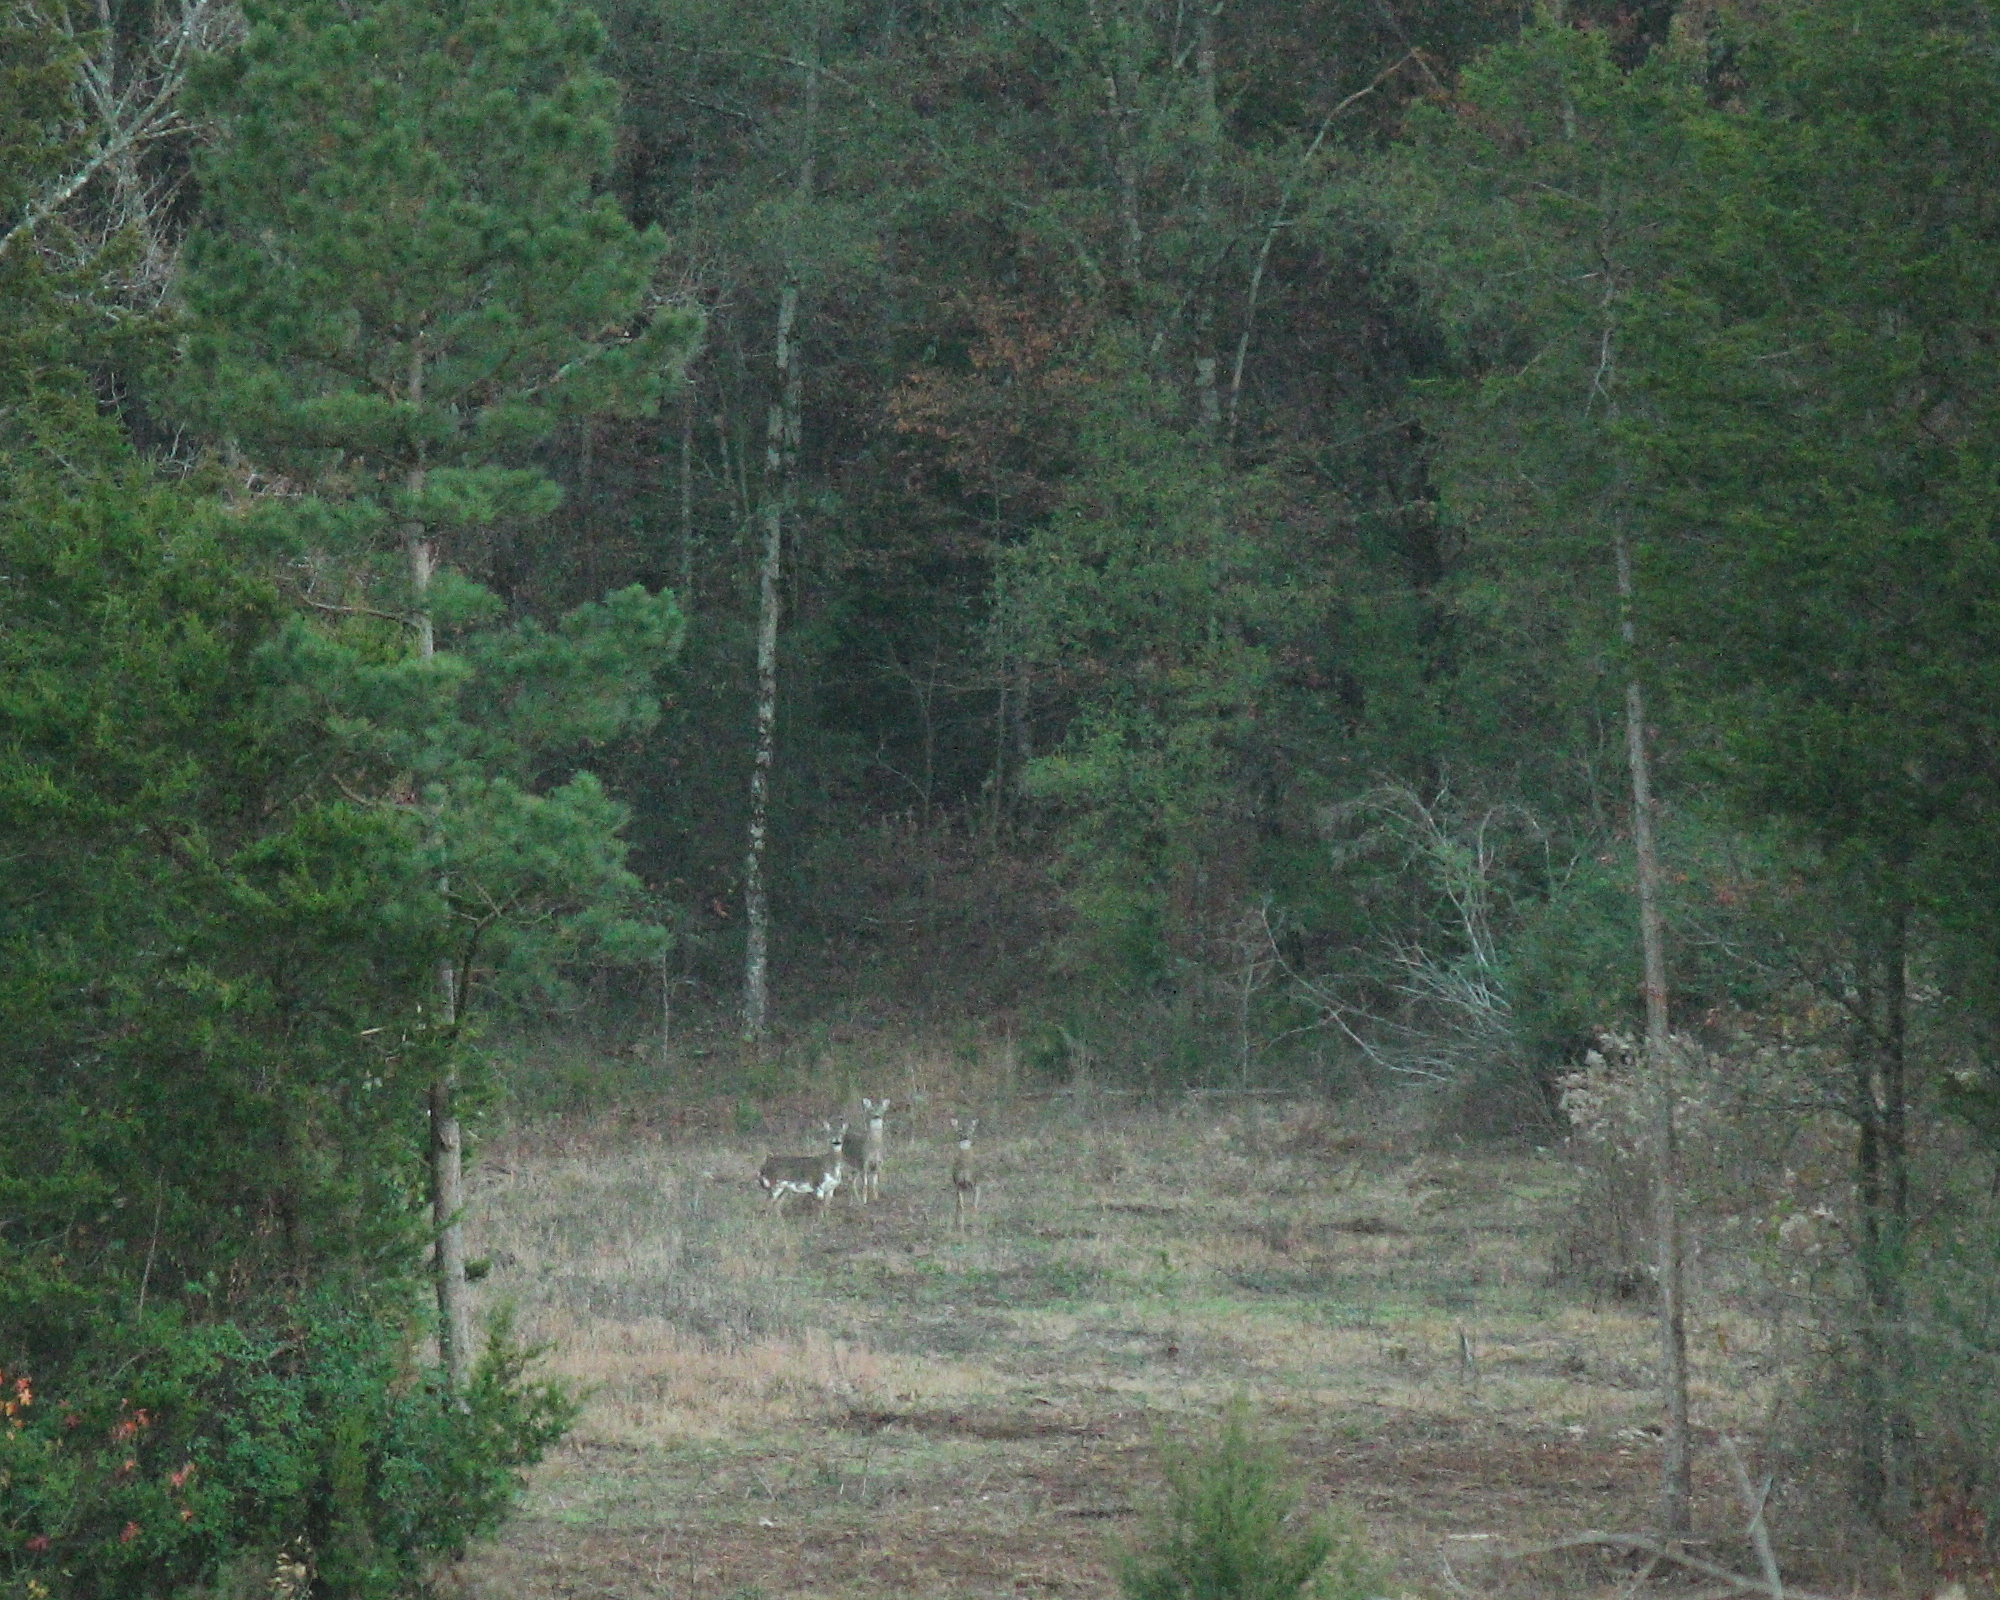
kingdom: Animalia
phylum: Chordata
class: Mammalia
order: Artiodactyla
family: Cervidae
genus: Odocoileus
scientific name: Odocoileus virginianus
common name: White-tailed deer
